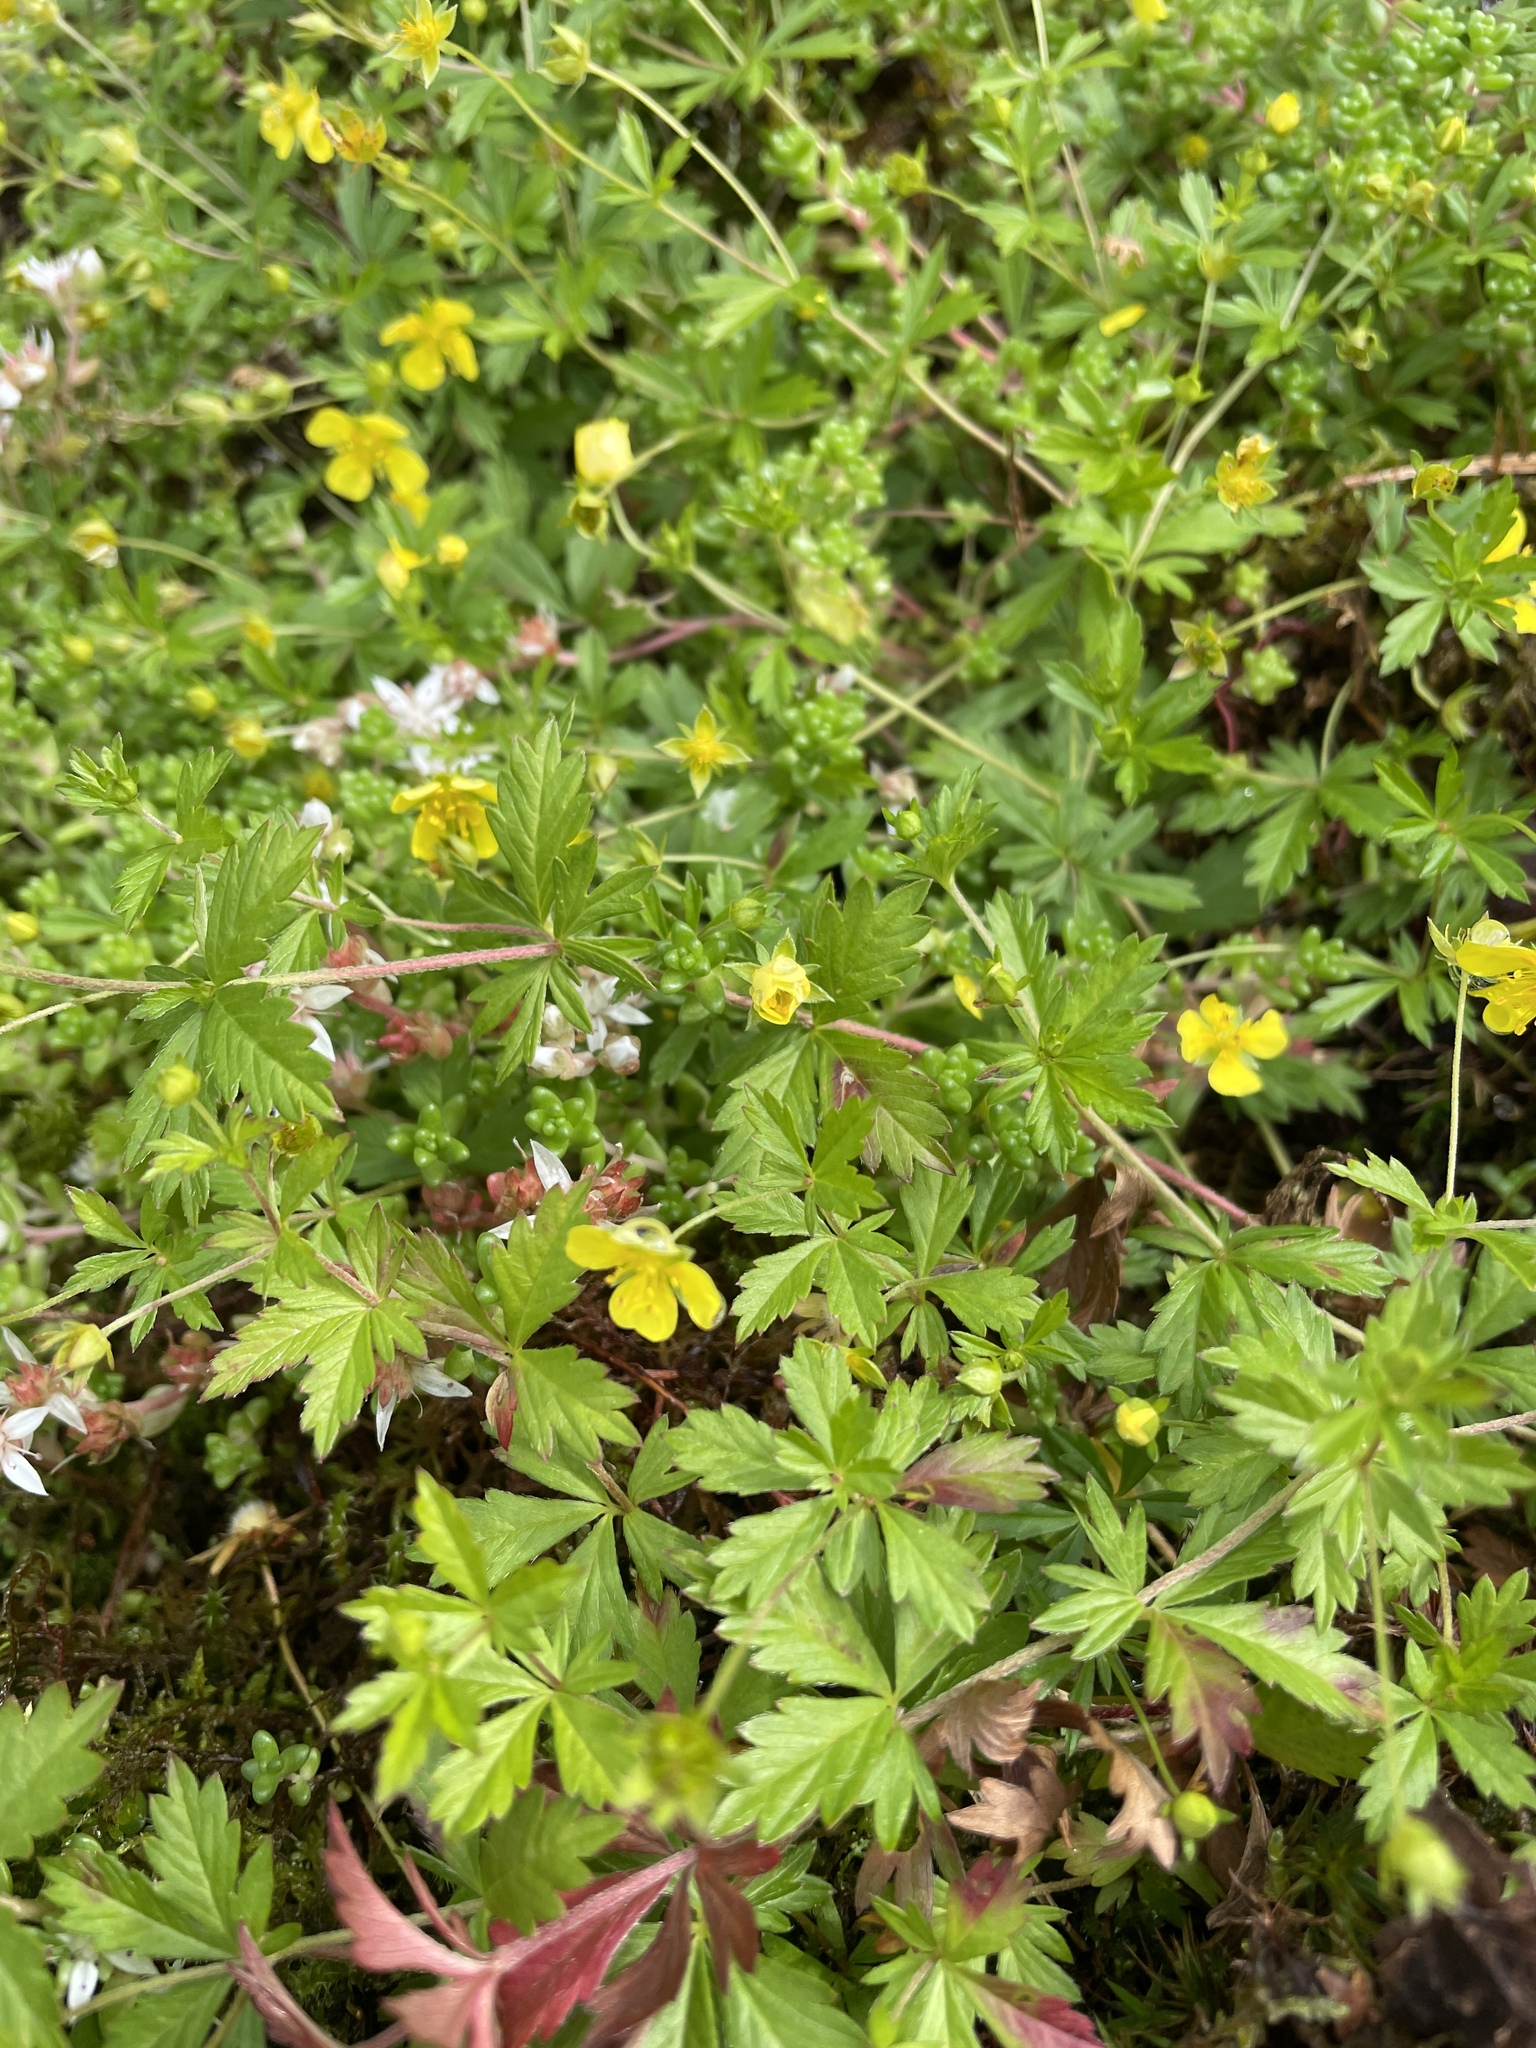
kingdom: Plantae
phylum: Tracheophyta
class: Magnoliopsida
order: Rosales
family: Rosaceae
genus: Potentilla
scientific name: Potentilla erecta
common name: Tormentil
